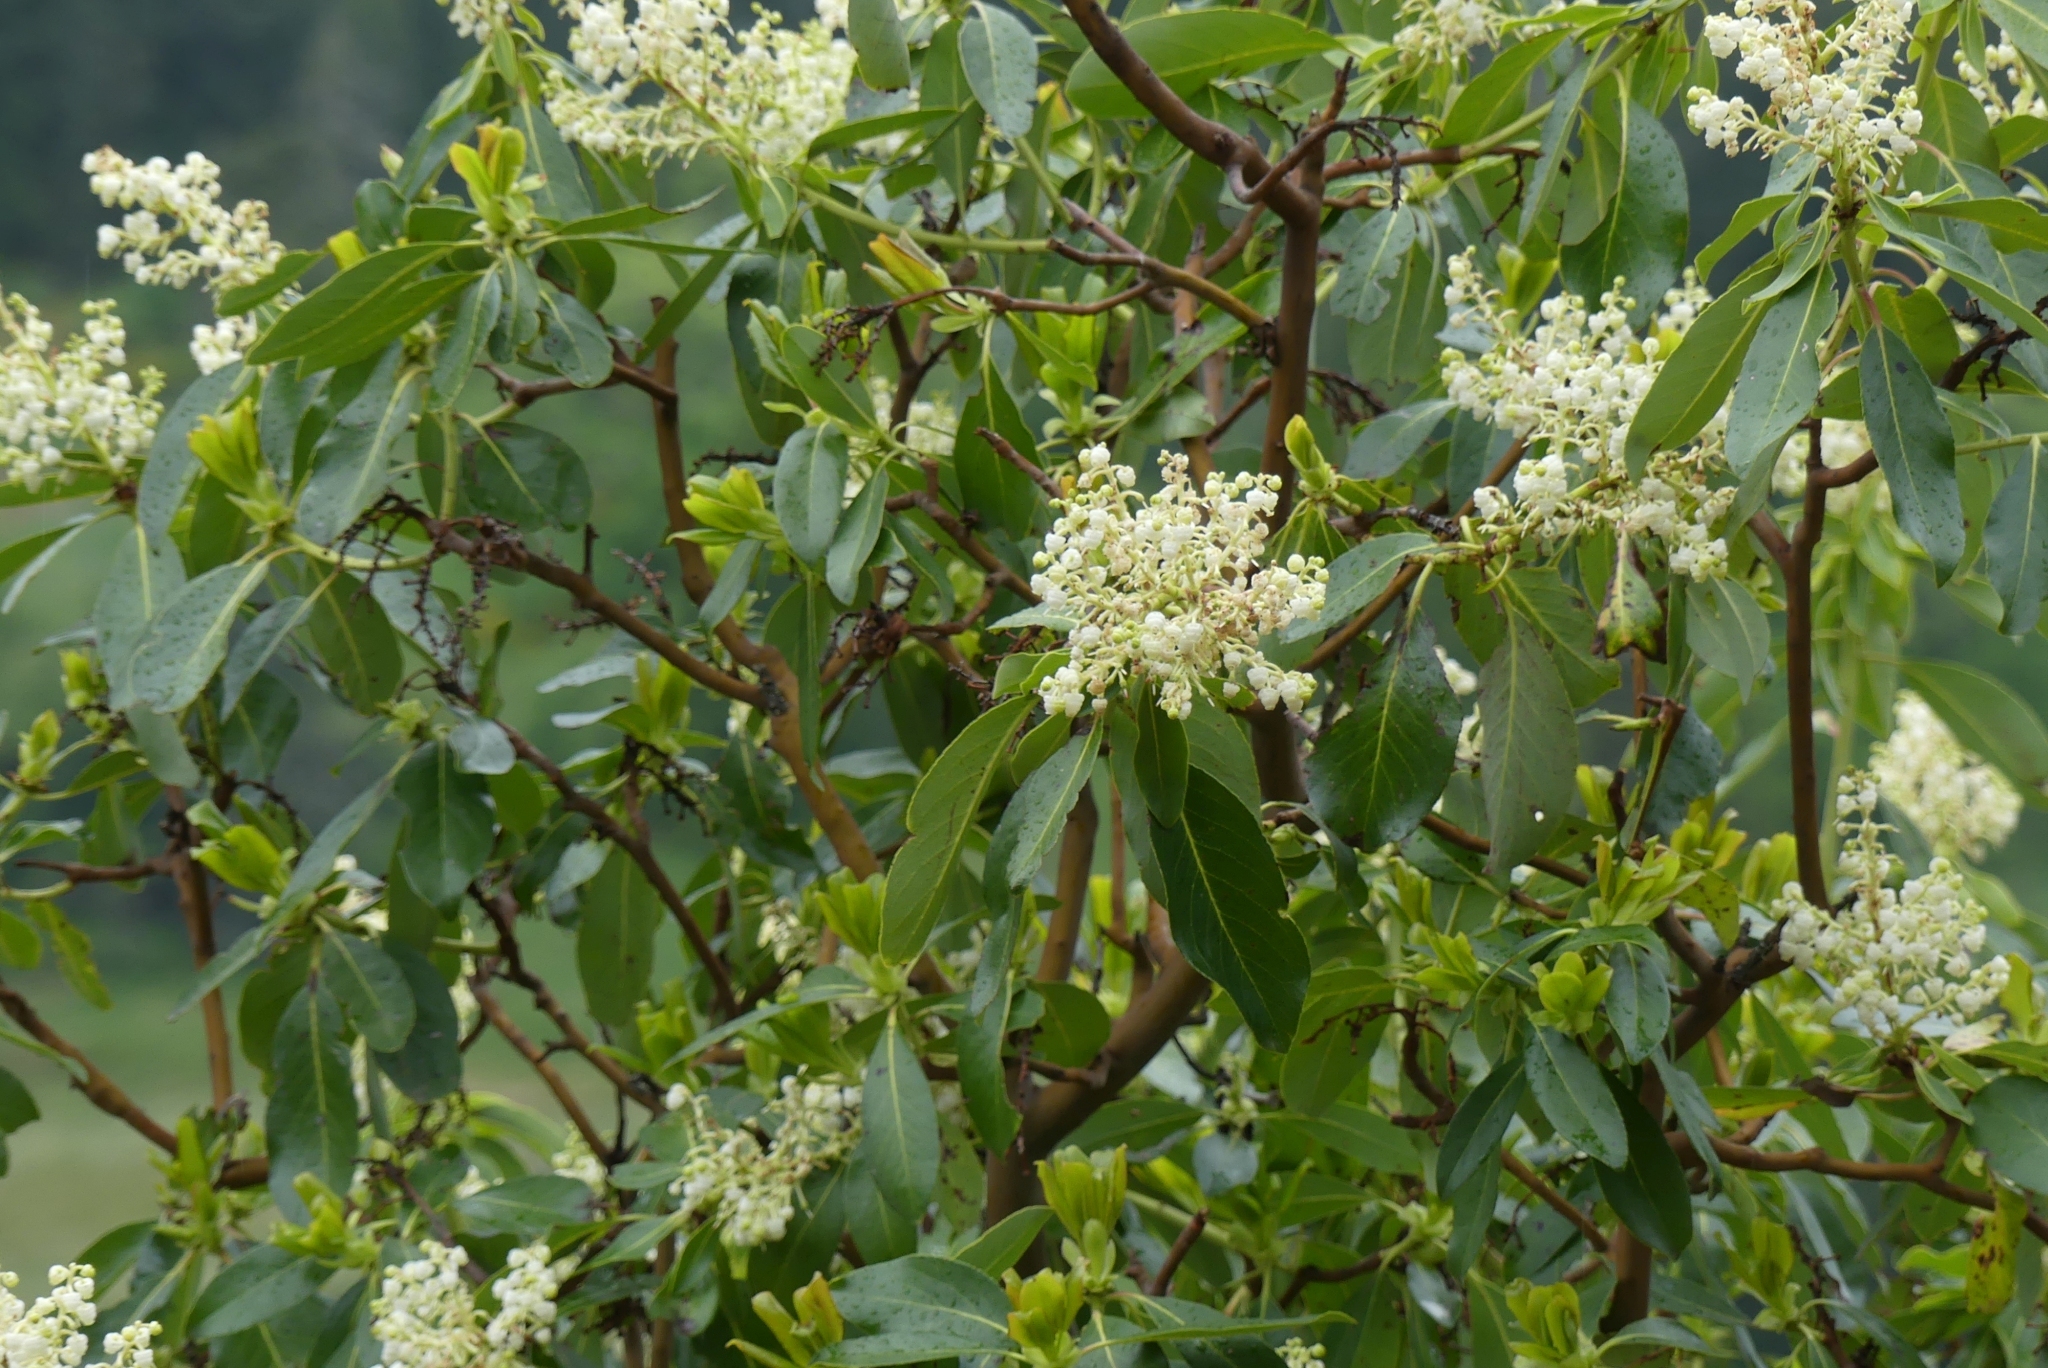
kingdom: Plantae
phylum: Tracheophyta
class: Magnoliopsida
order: Ericales
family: Ericaceae
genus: Arbutus
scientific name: Arbutus menziesii
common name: Pacific madrone
